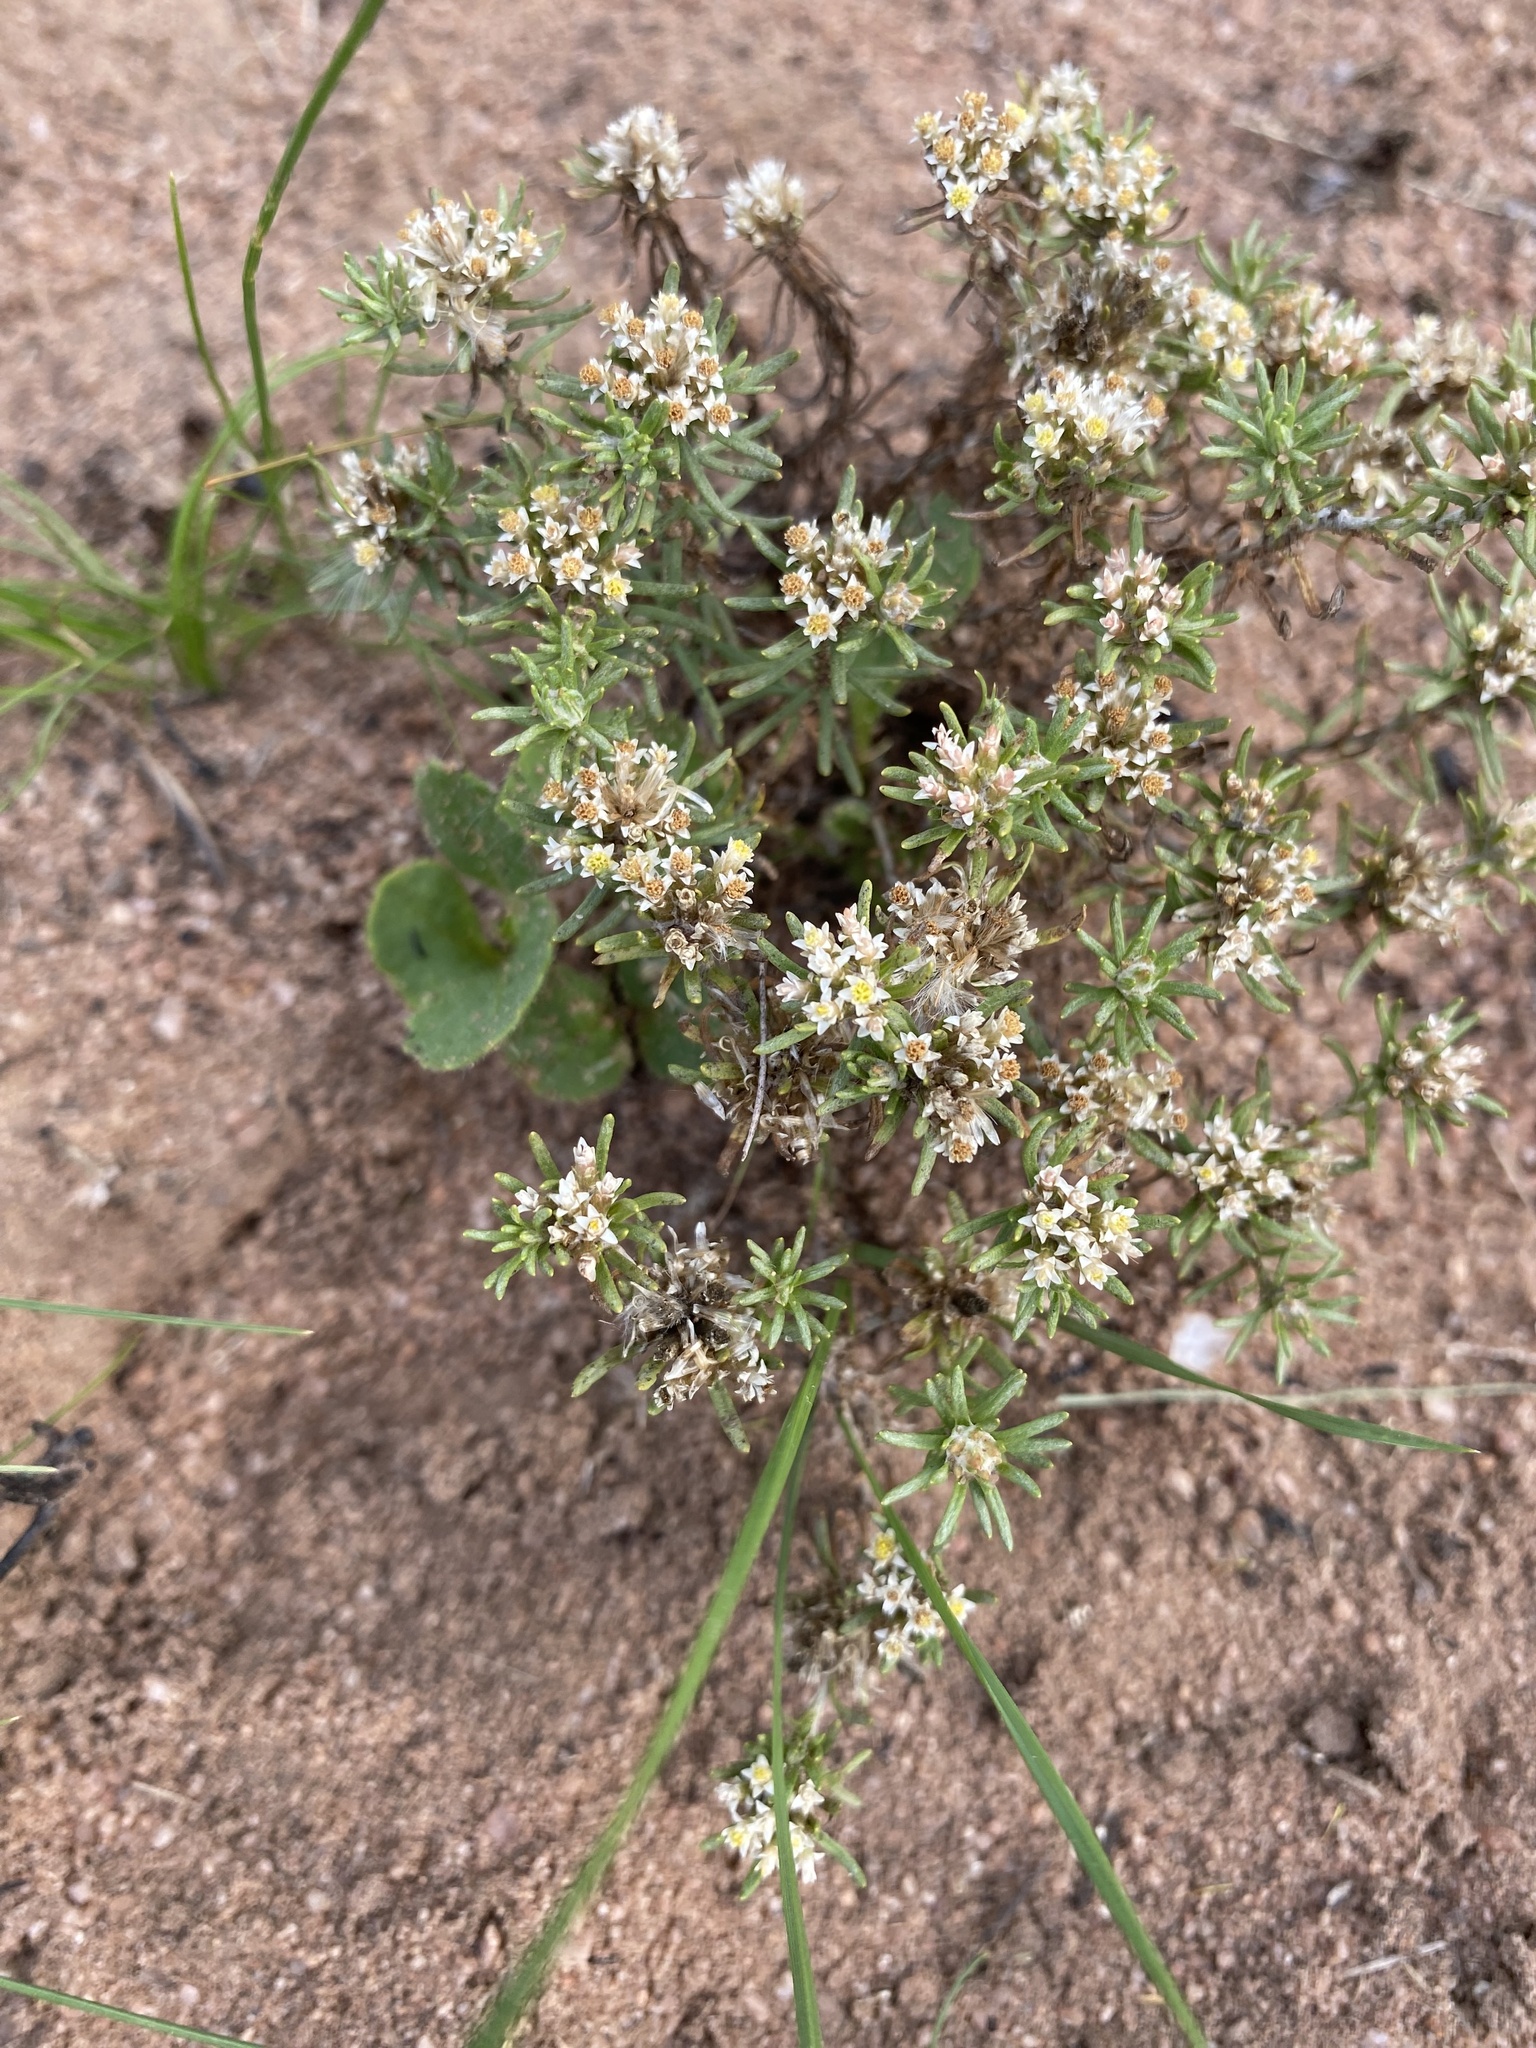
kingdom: Plantae
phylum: Tracheophyta
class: Magnoliopsida
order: Asterales
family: Asteraceae
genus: Helichrysum
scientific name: Helichrysum asperum
